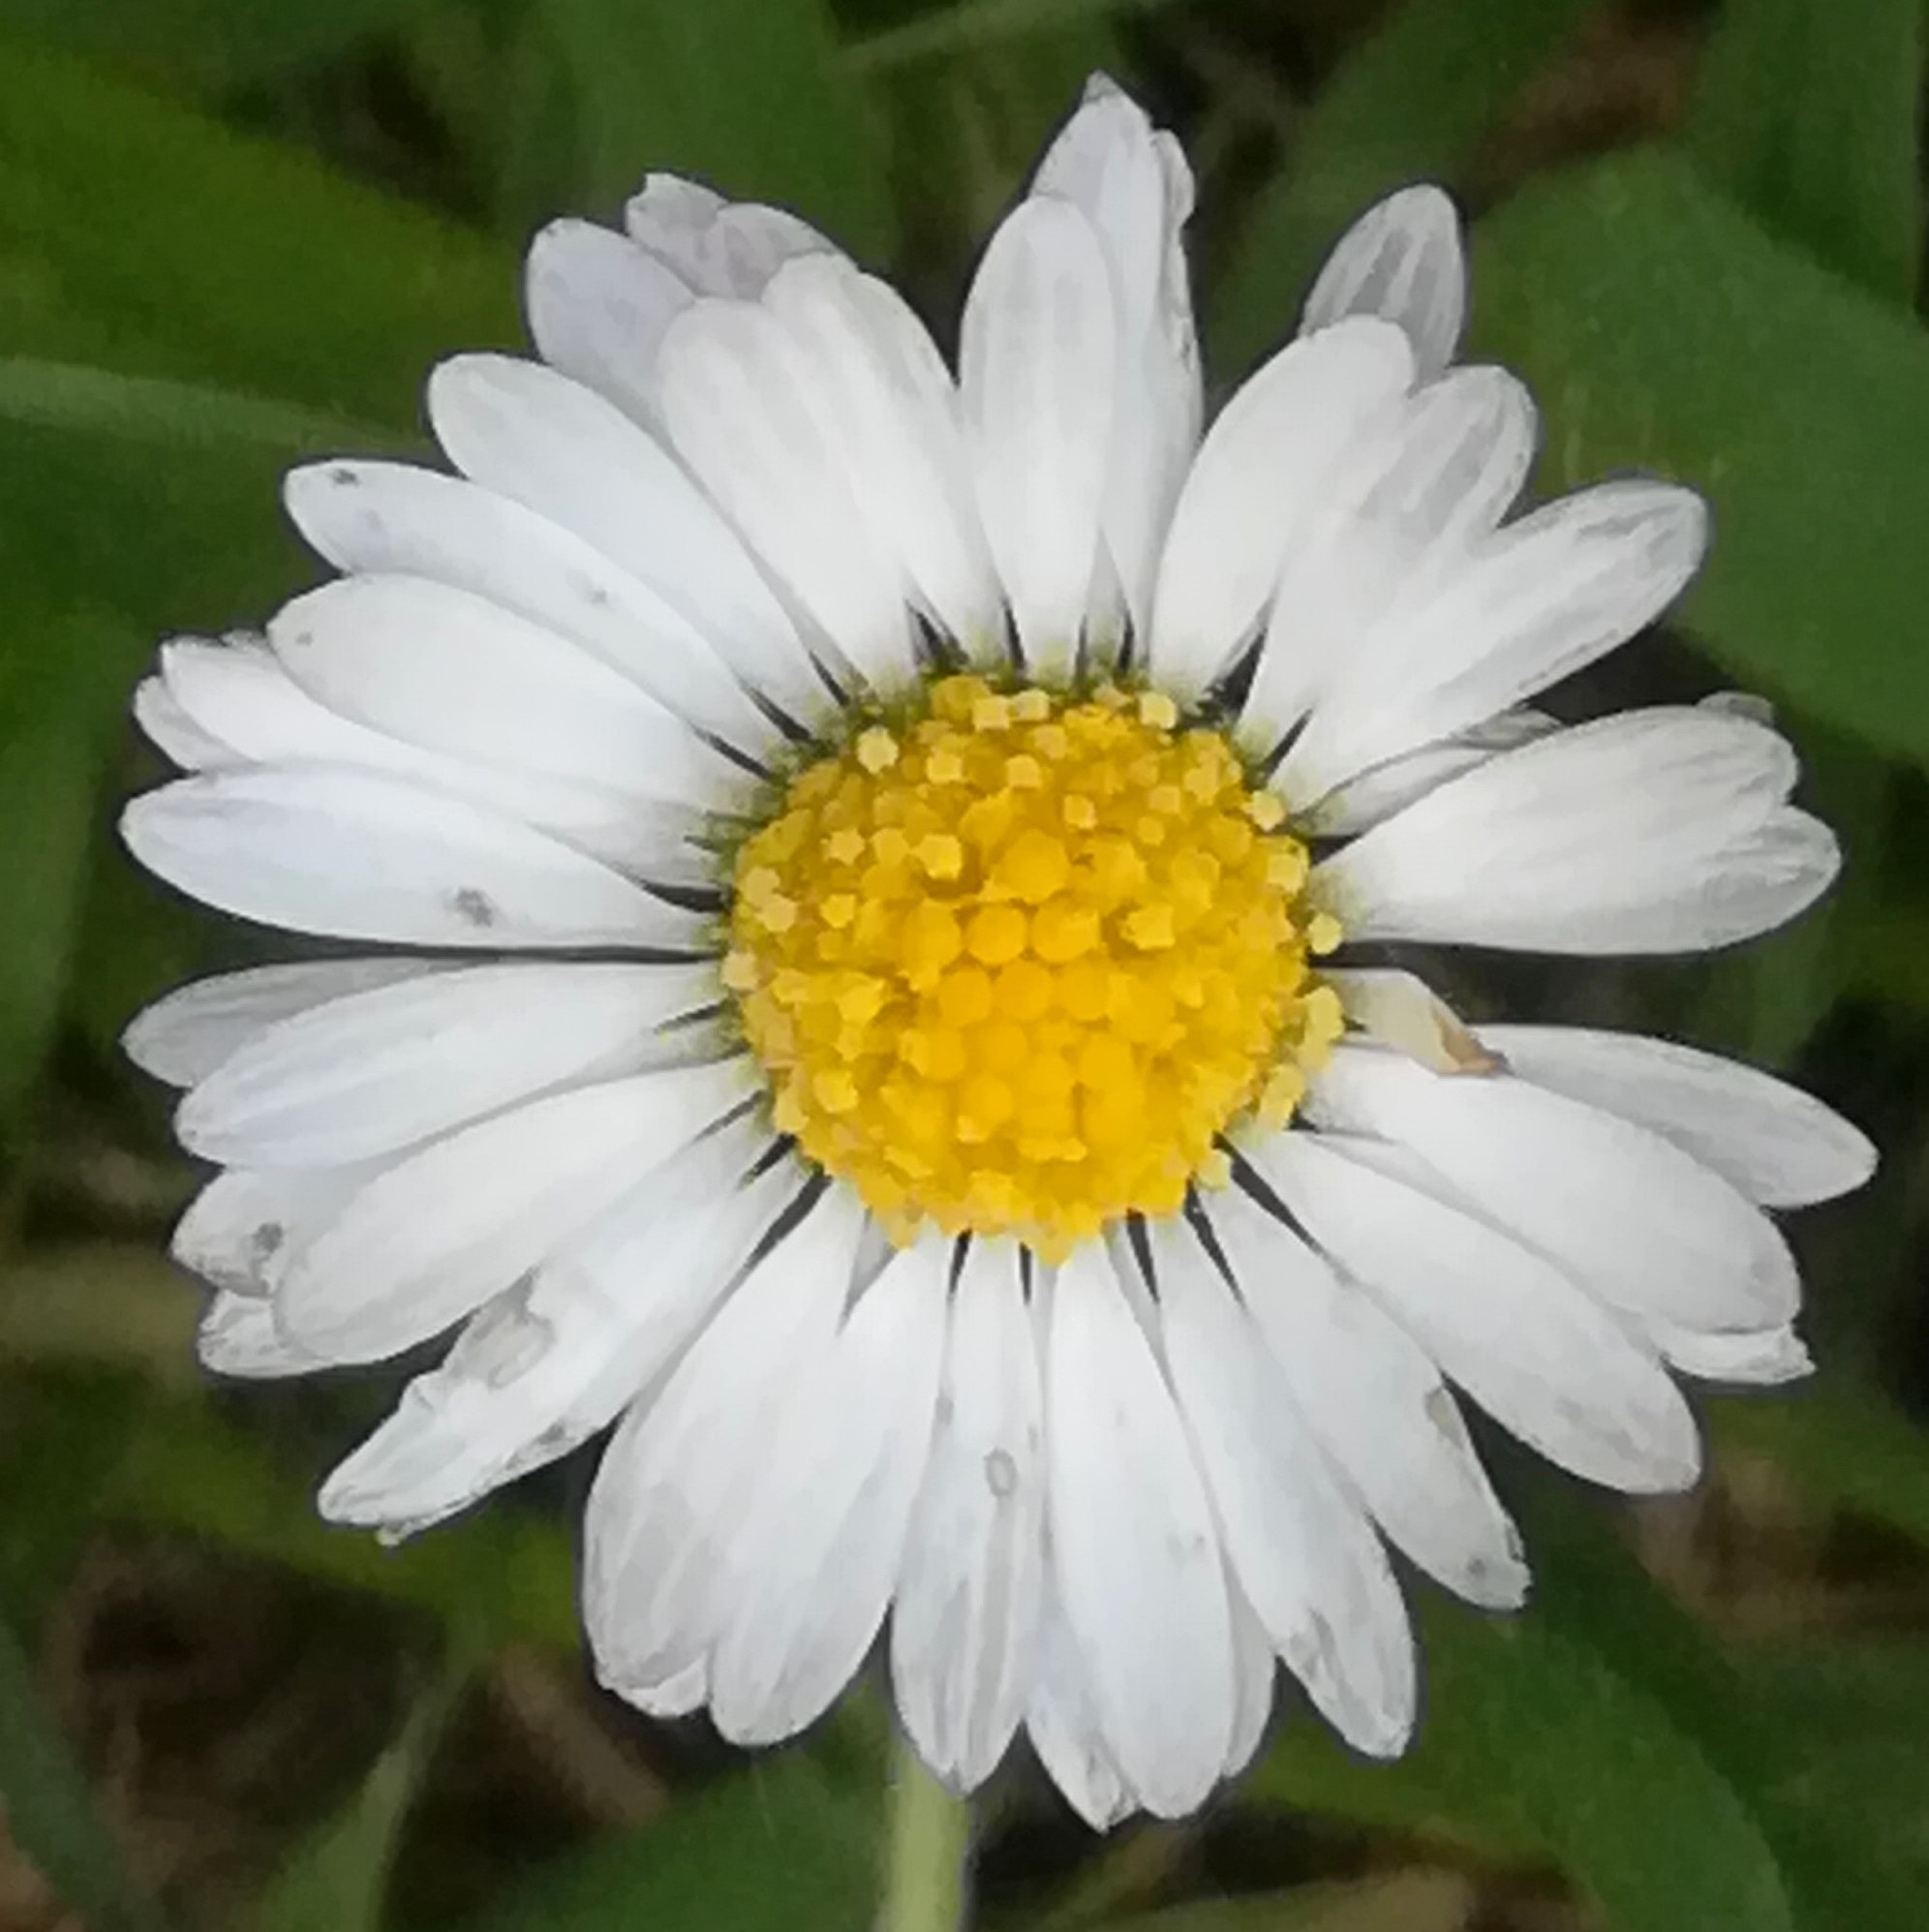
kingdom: Plantae
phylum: Tracheophyta
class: Magnoliopsida
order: Asterales
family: Asteraceae
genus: Bellis
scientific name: Bellis perennis
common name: Lawndaisy
